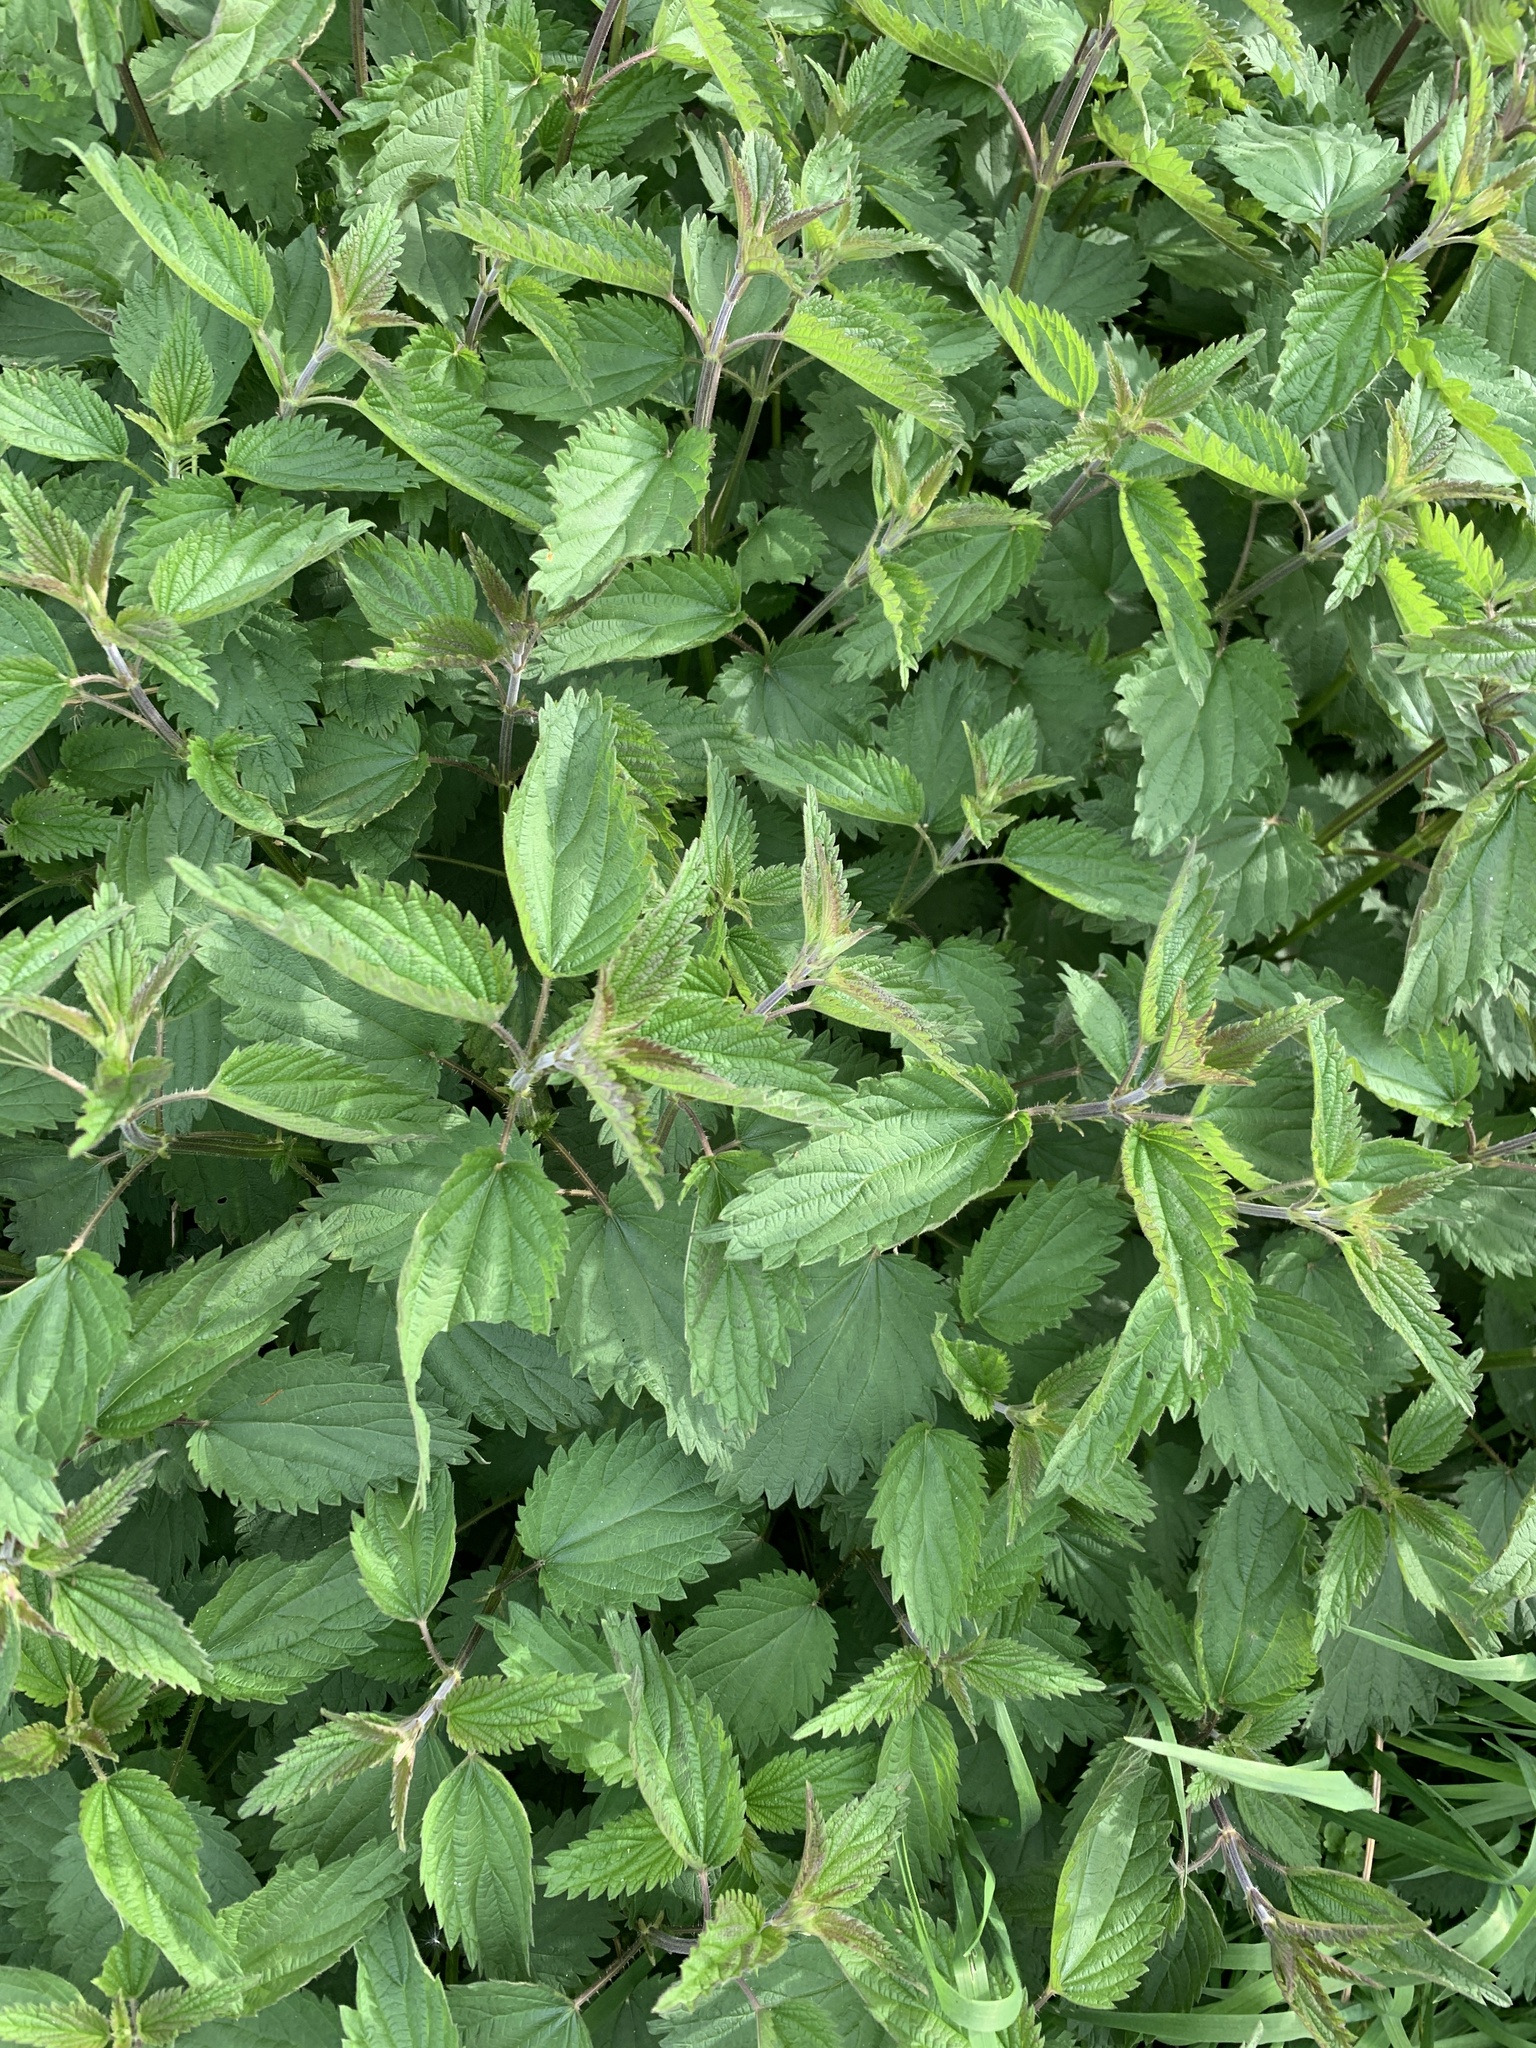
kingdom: Plantae
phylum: Tracheophyta
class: Magnoliopsida
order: Rosales
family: Urticaceae
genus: Urtica
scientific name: Urtica dioica
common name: Common nettle
